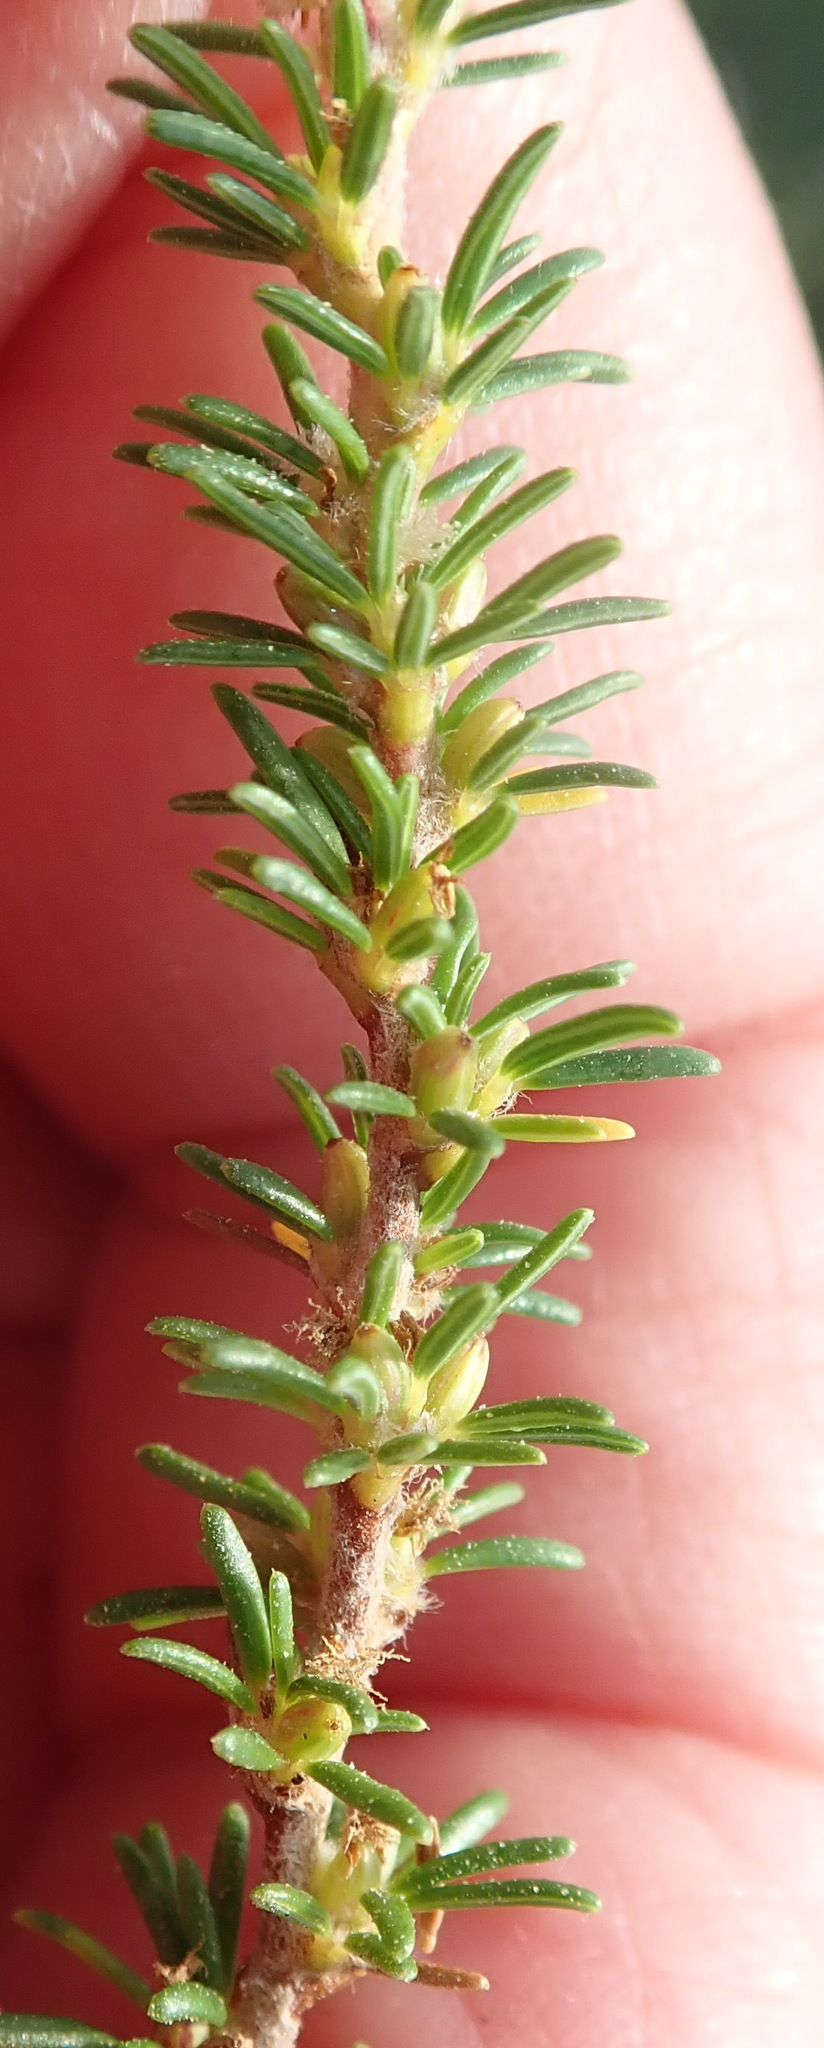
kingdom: Plantae
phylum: Tracheophyta
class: Magnoliopsida
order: Rosales
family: Rosaceae
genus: Cliffortia
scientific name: Cliffortia linearifolia
